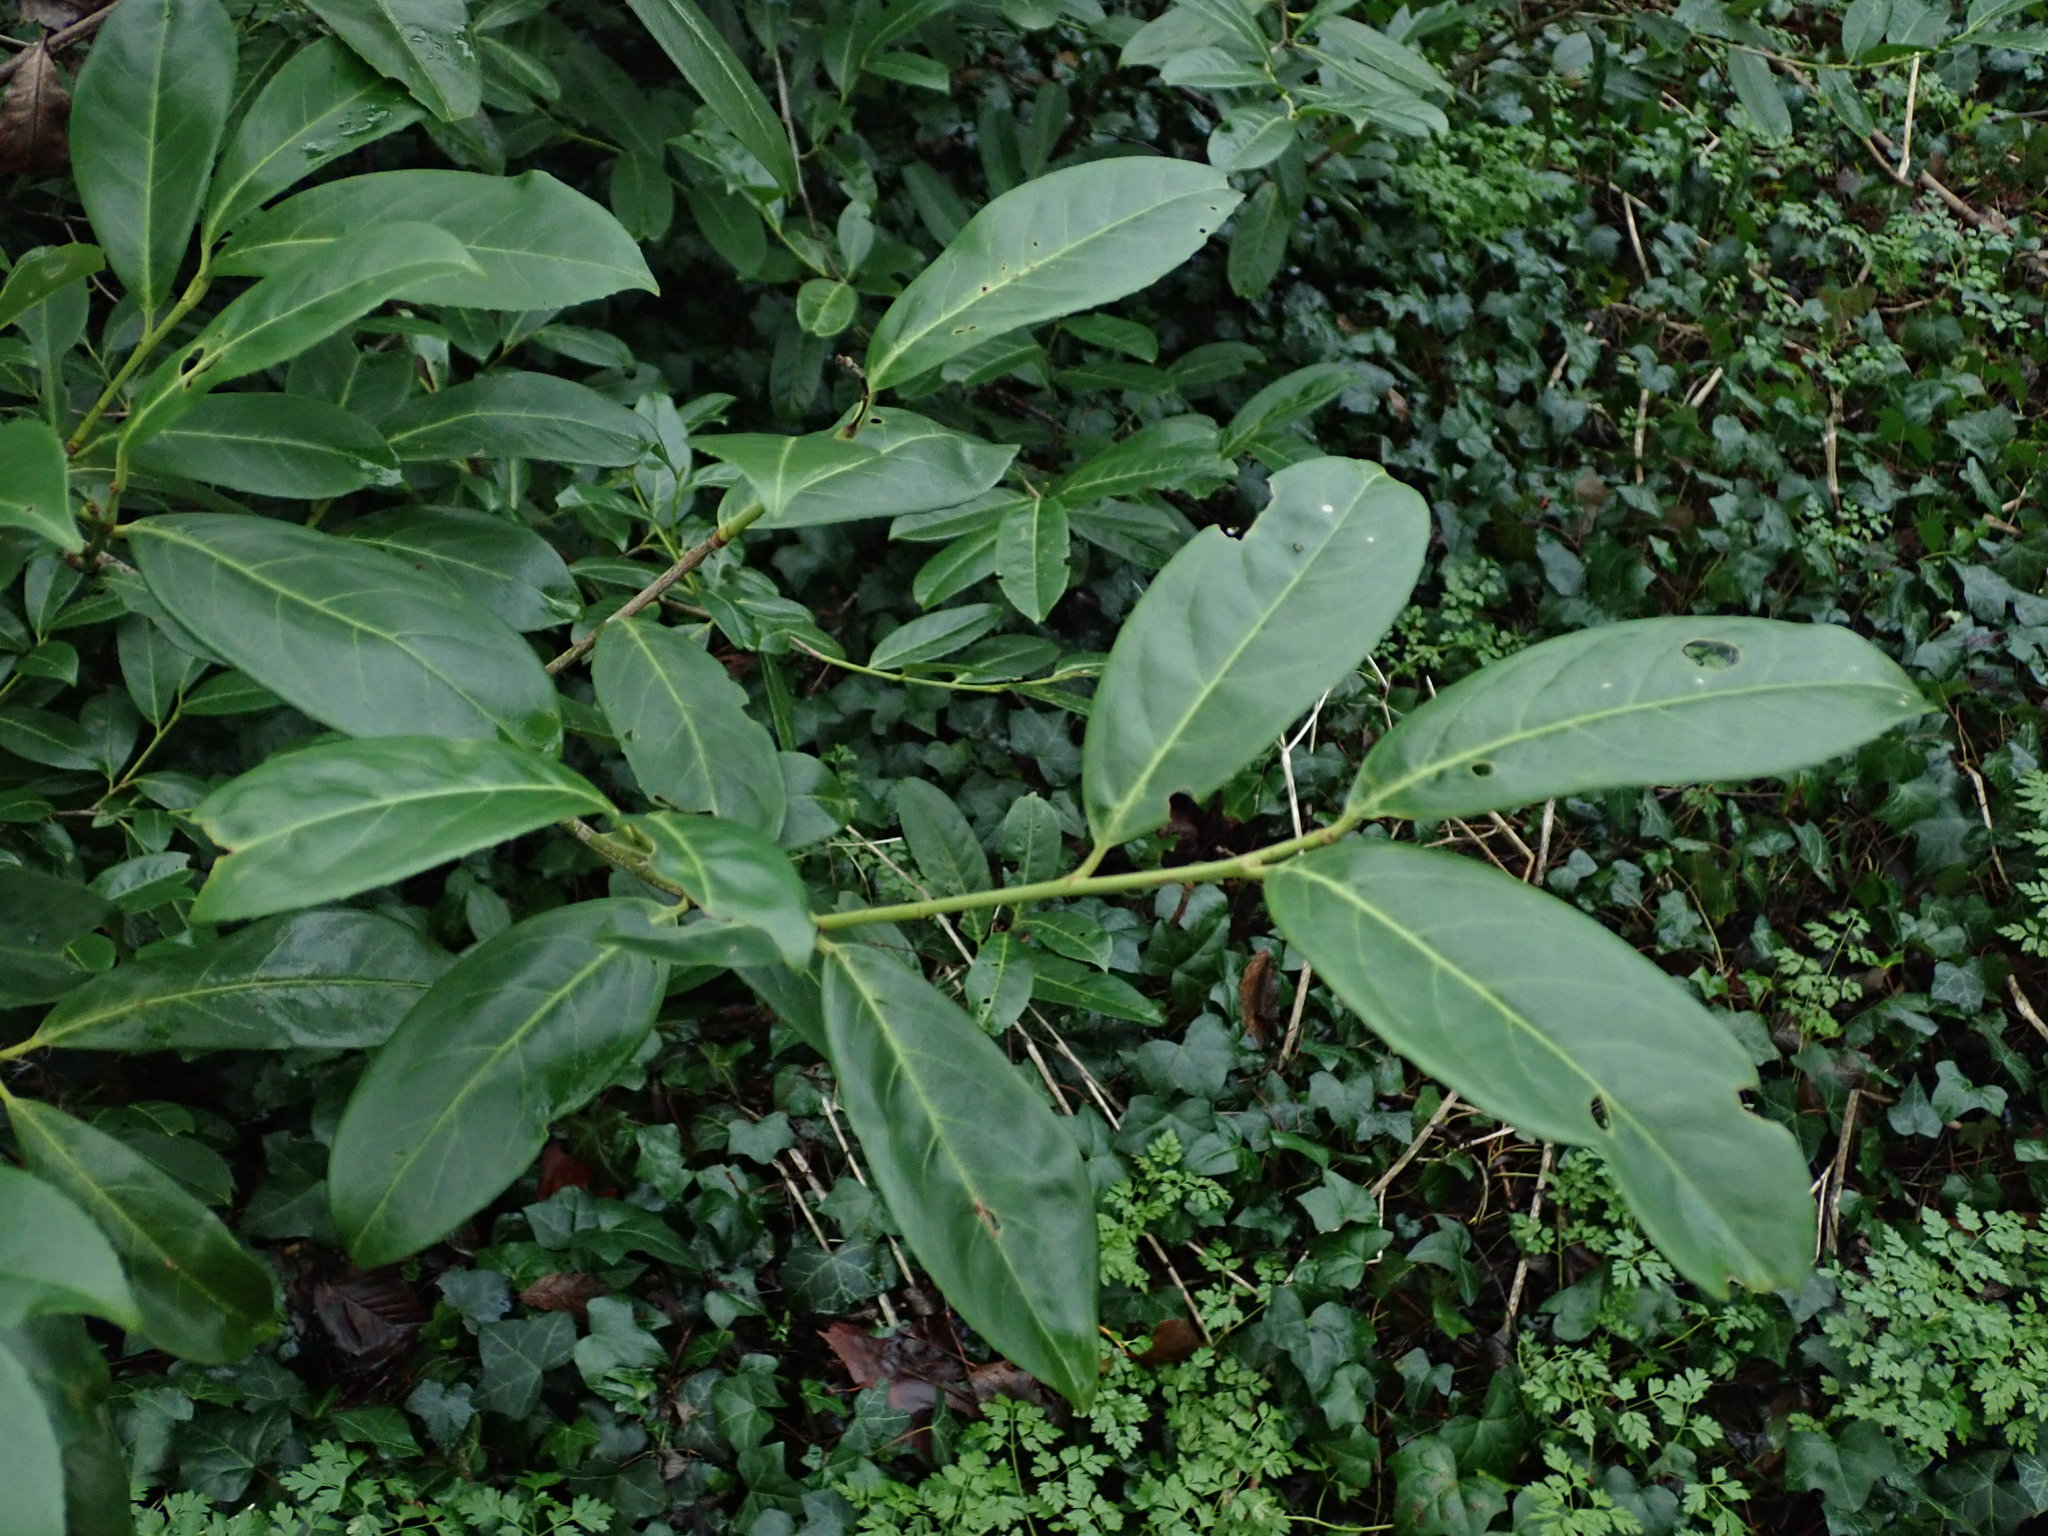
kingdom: Plantae
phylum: Tracheophyta
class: Magnoliopsida
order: Rosales
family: Rosaceae
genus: Prunus
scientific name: Prunus laurocerasus
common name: Cherry laurel
